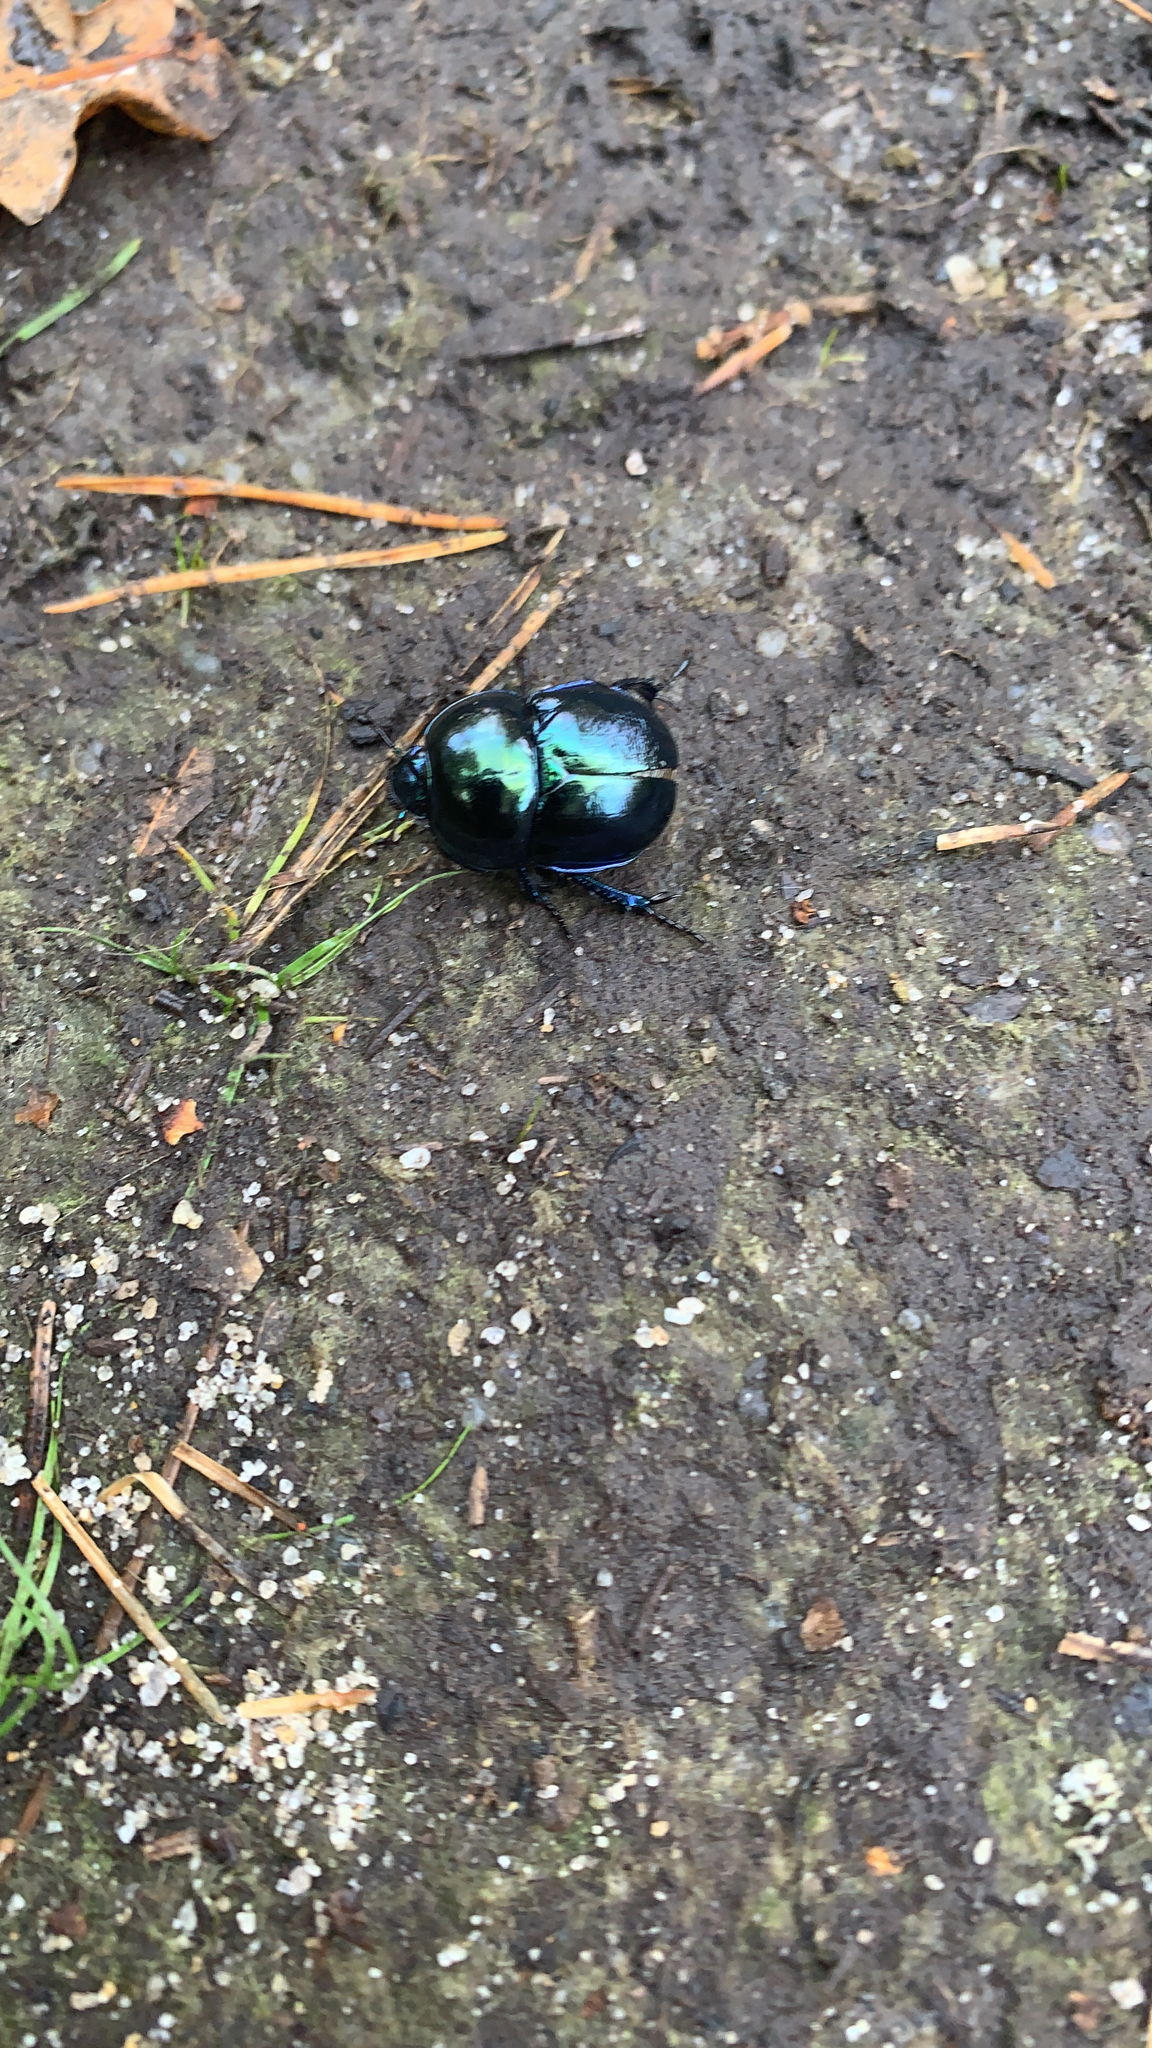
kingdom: Animalia
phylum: Arthropoda
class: Insecta
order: Coleoptera
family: Geotrupidae
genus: Trypocopris
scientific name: Trypocopris vernalis
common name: Spring dumbledor
